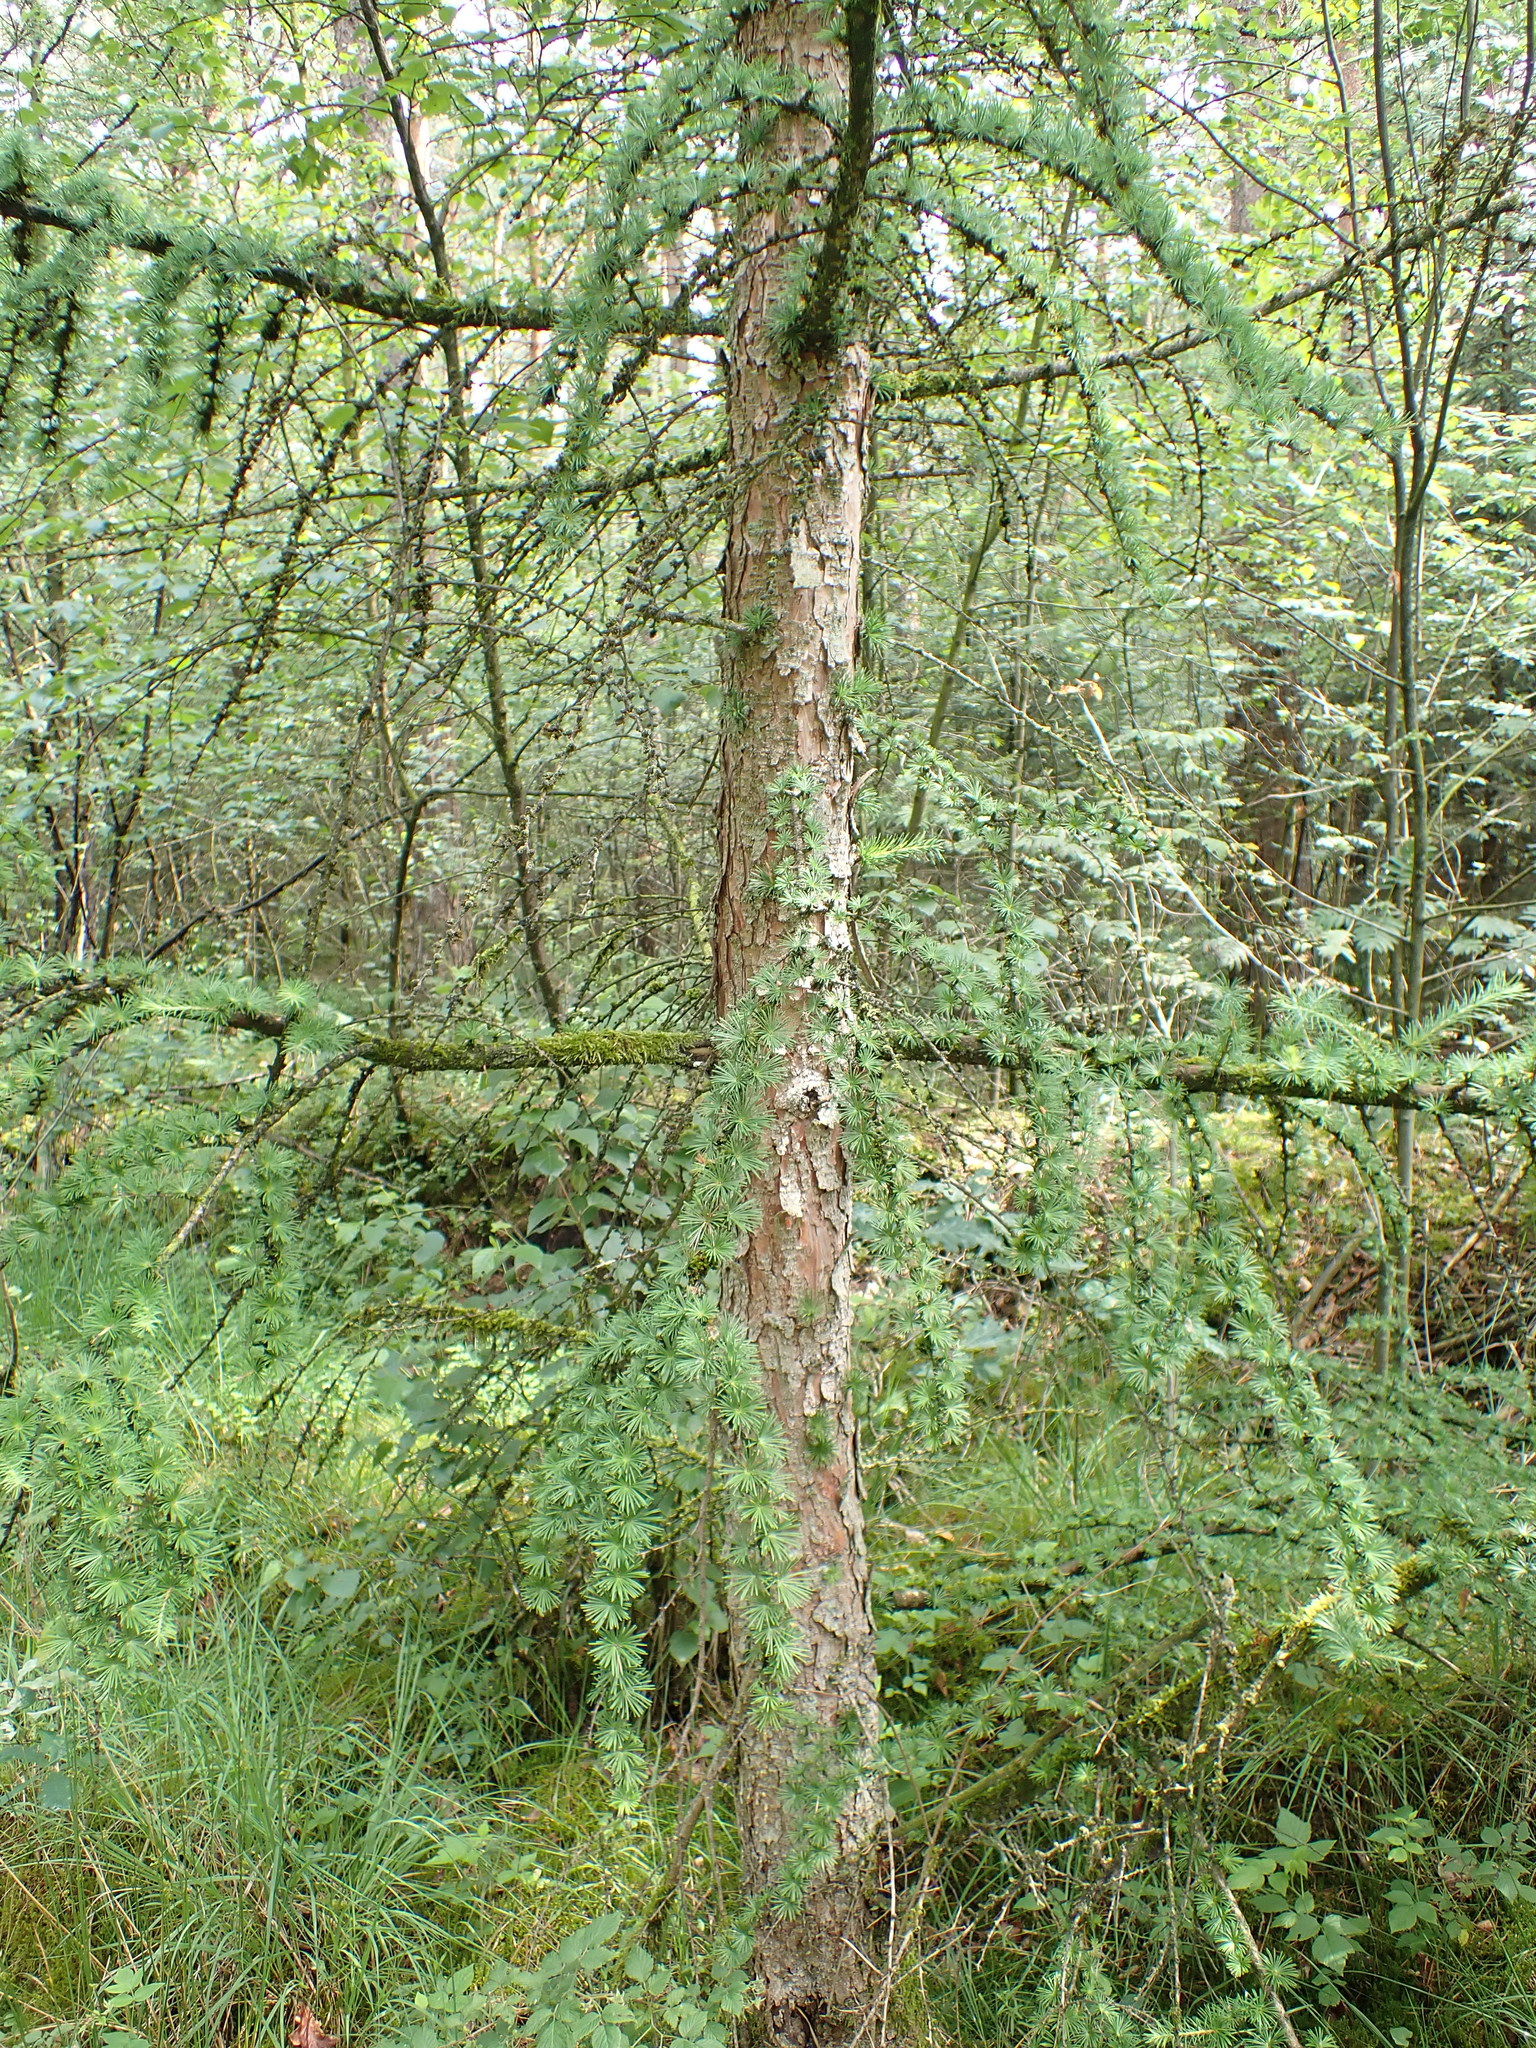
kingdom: Plantae
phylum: Tracheophyta
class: Pinopsida
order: Pinales
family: Pinaceae
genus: Larix
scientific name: Larix decidua
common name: European larch
